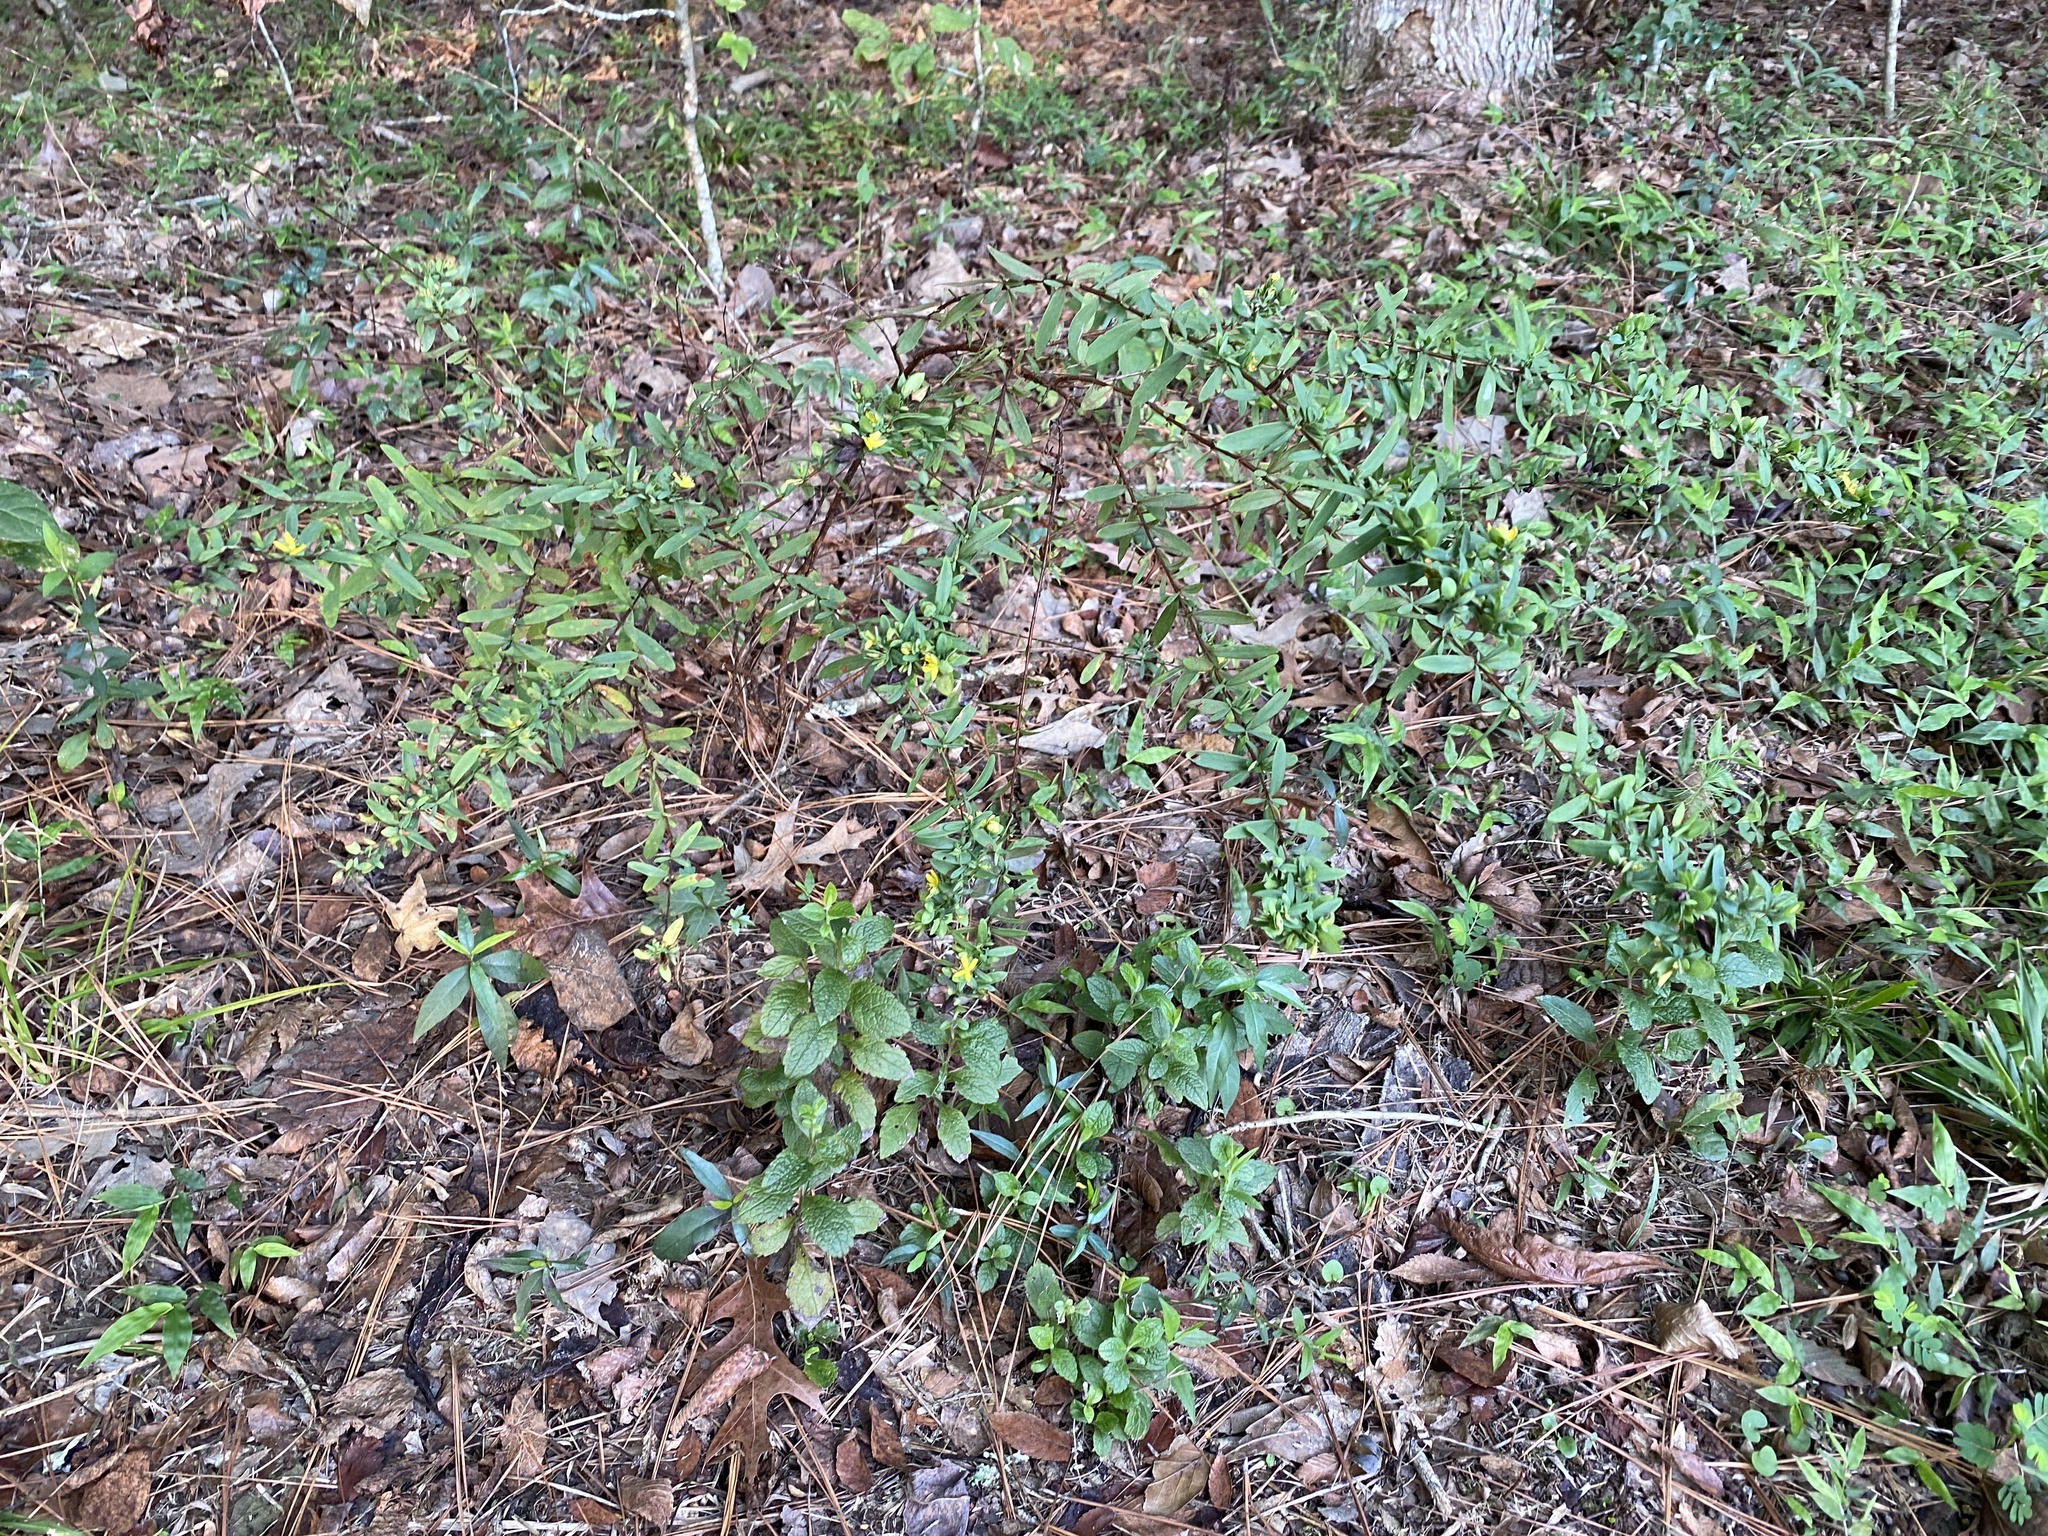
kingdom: Plantae
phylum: Tracheophyta
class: Magnoliopsida
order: Malpighiales
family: Hypericaceae
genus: Hypericum
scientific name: Hypericum hypericoides
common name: St. andrew's cross
